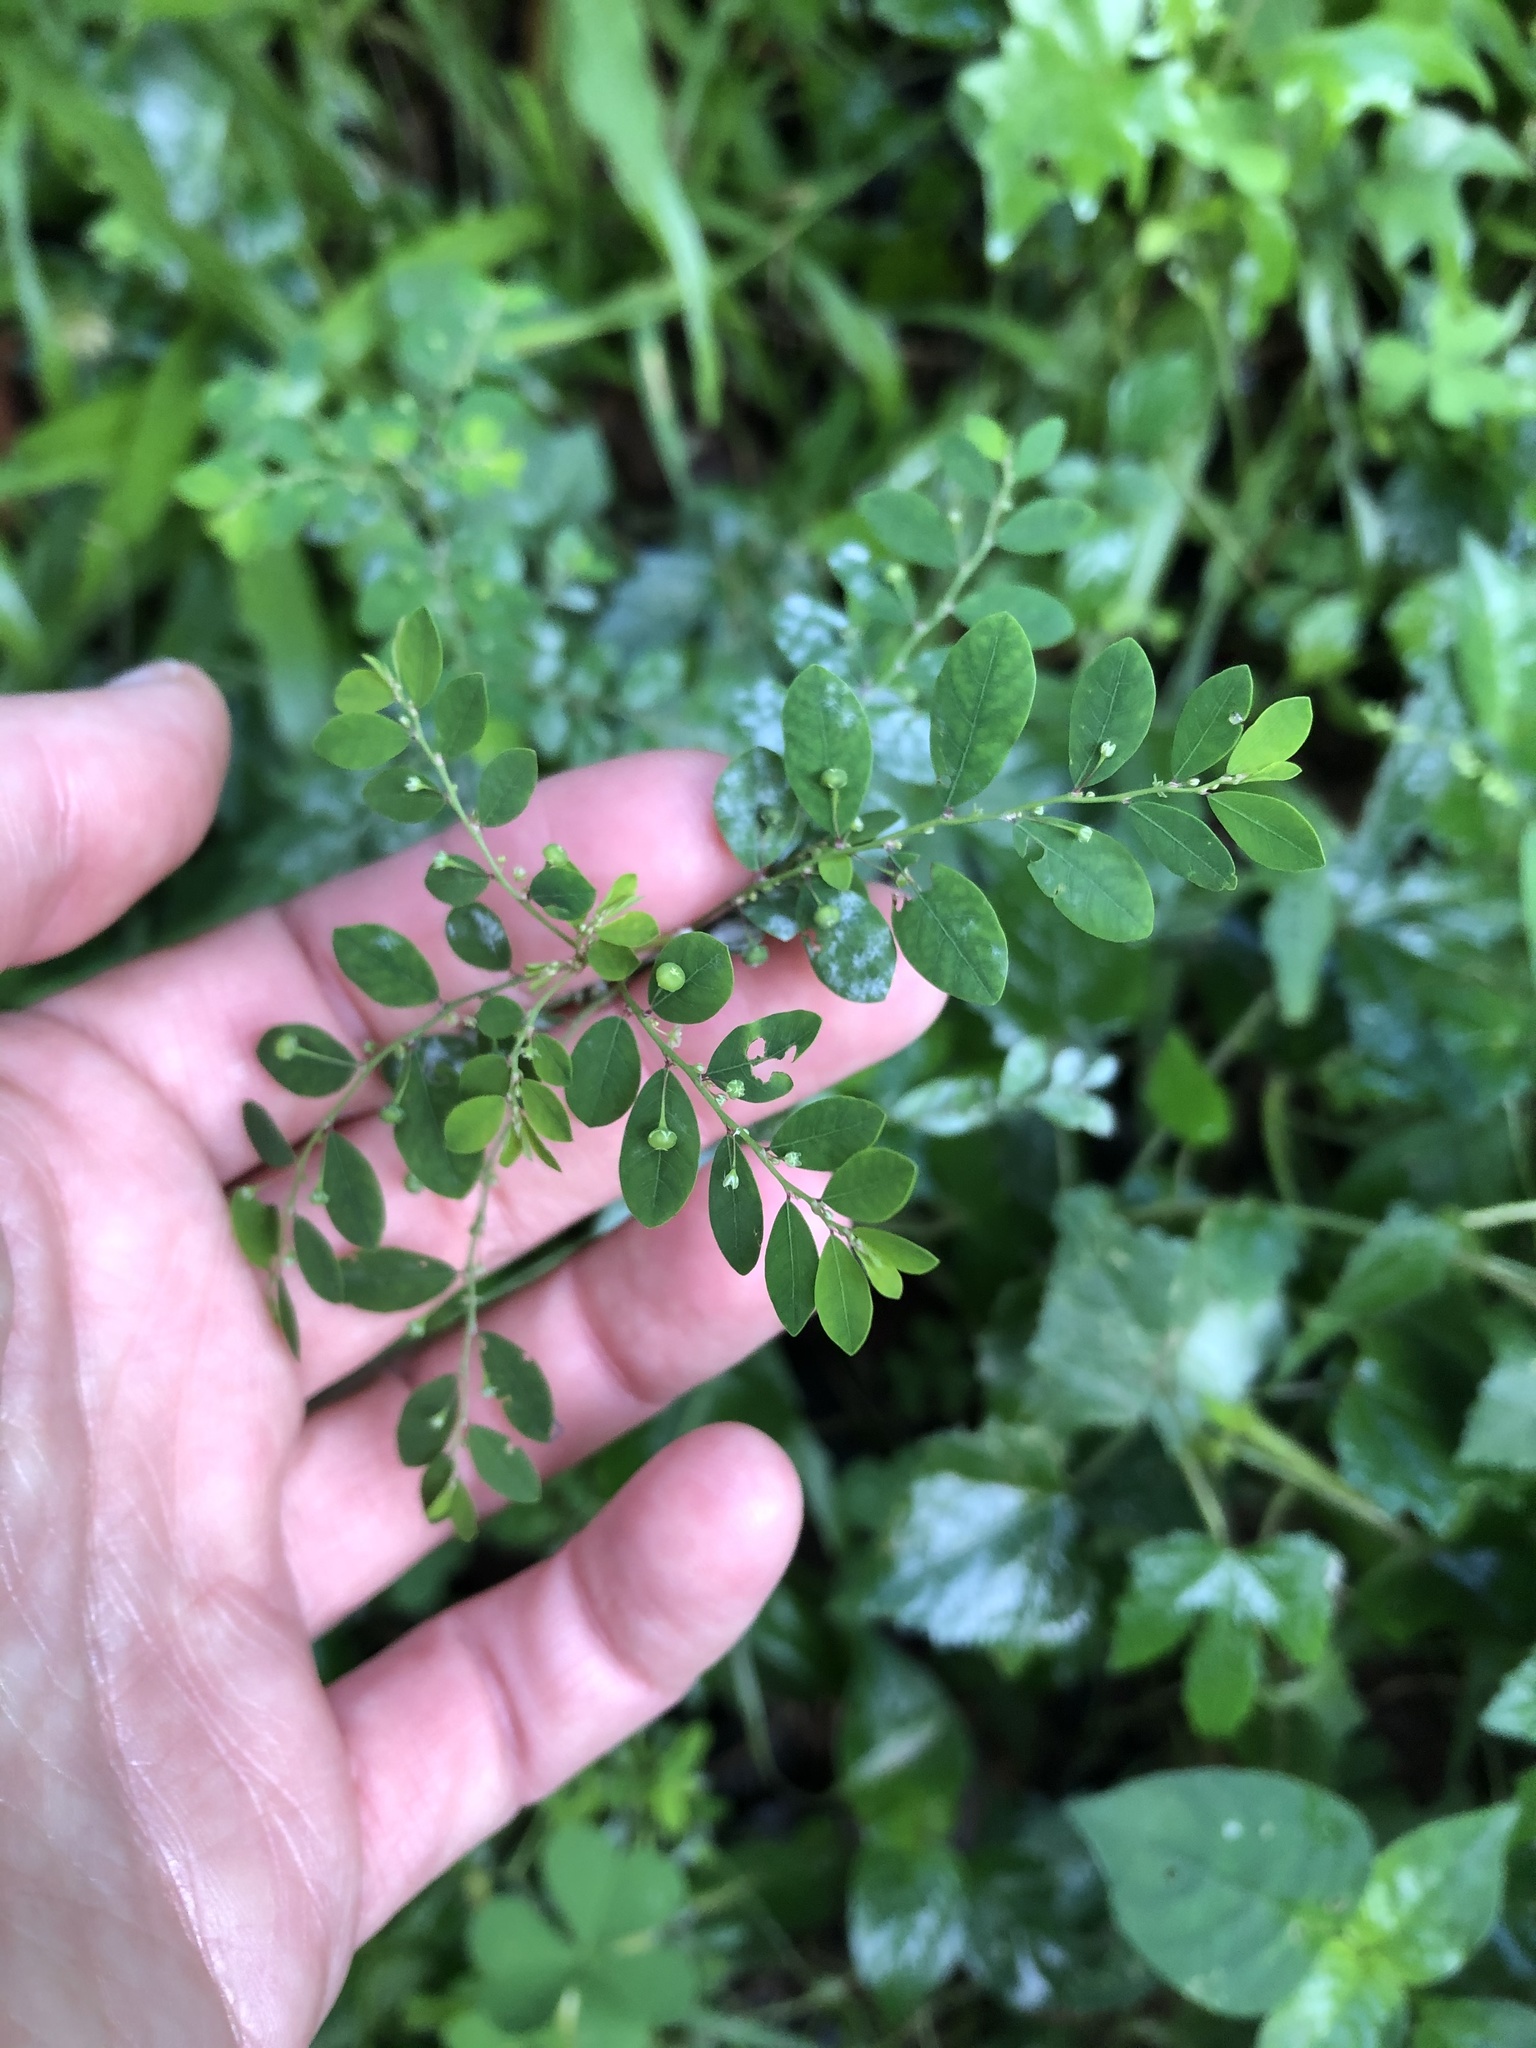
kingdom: Plantae
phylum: Tracheophyta
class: Magnoliopsida
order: Malpighiales
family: Phyllanthaceae
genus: Phyllanthus
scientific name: Phyllanthus tenellus
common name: Mascarene island leaf-flower
